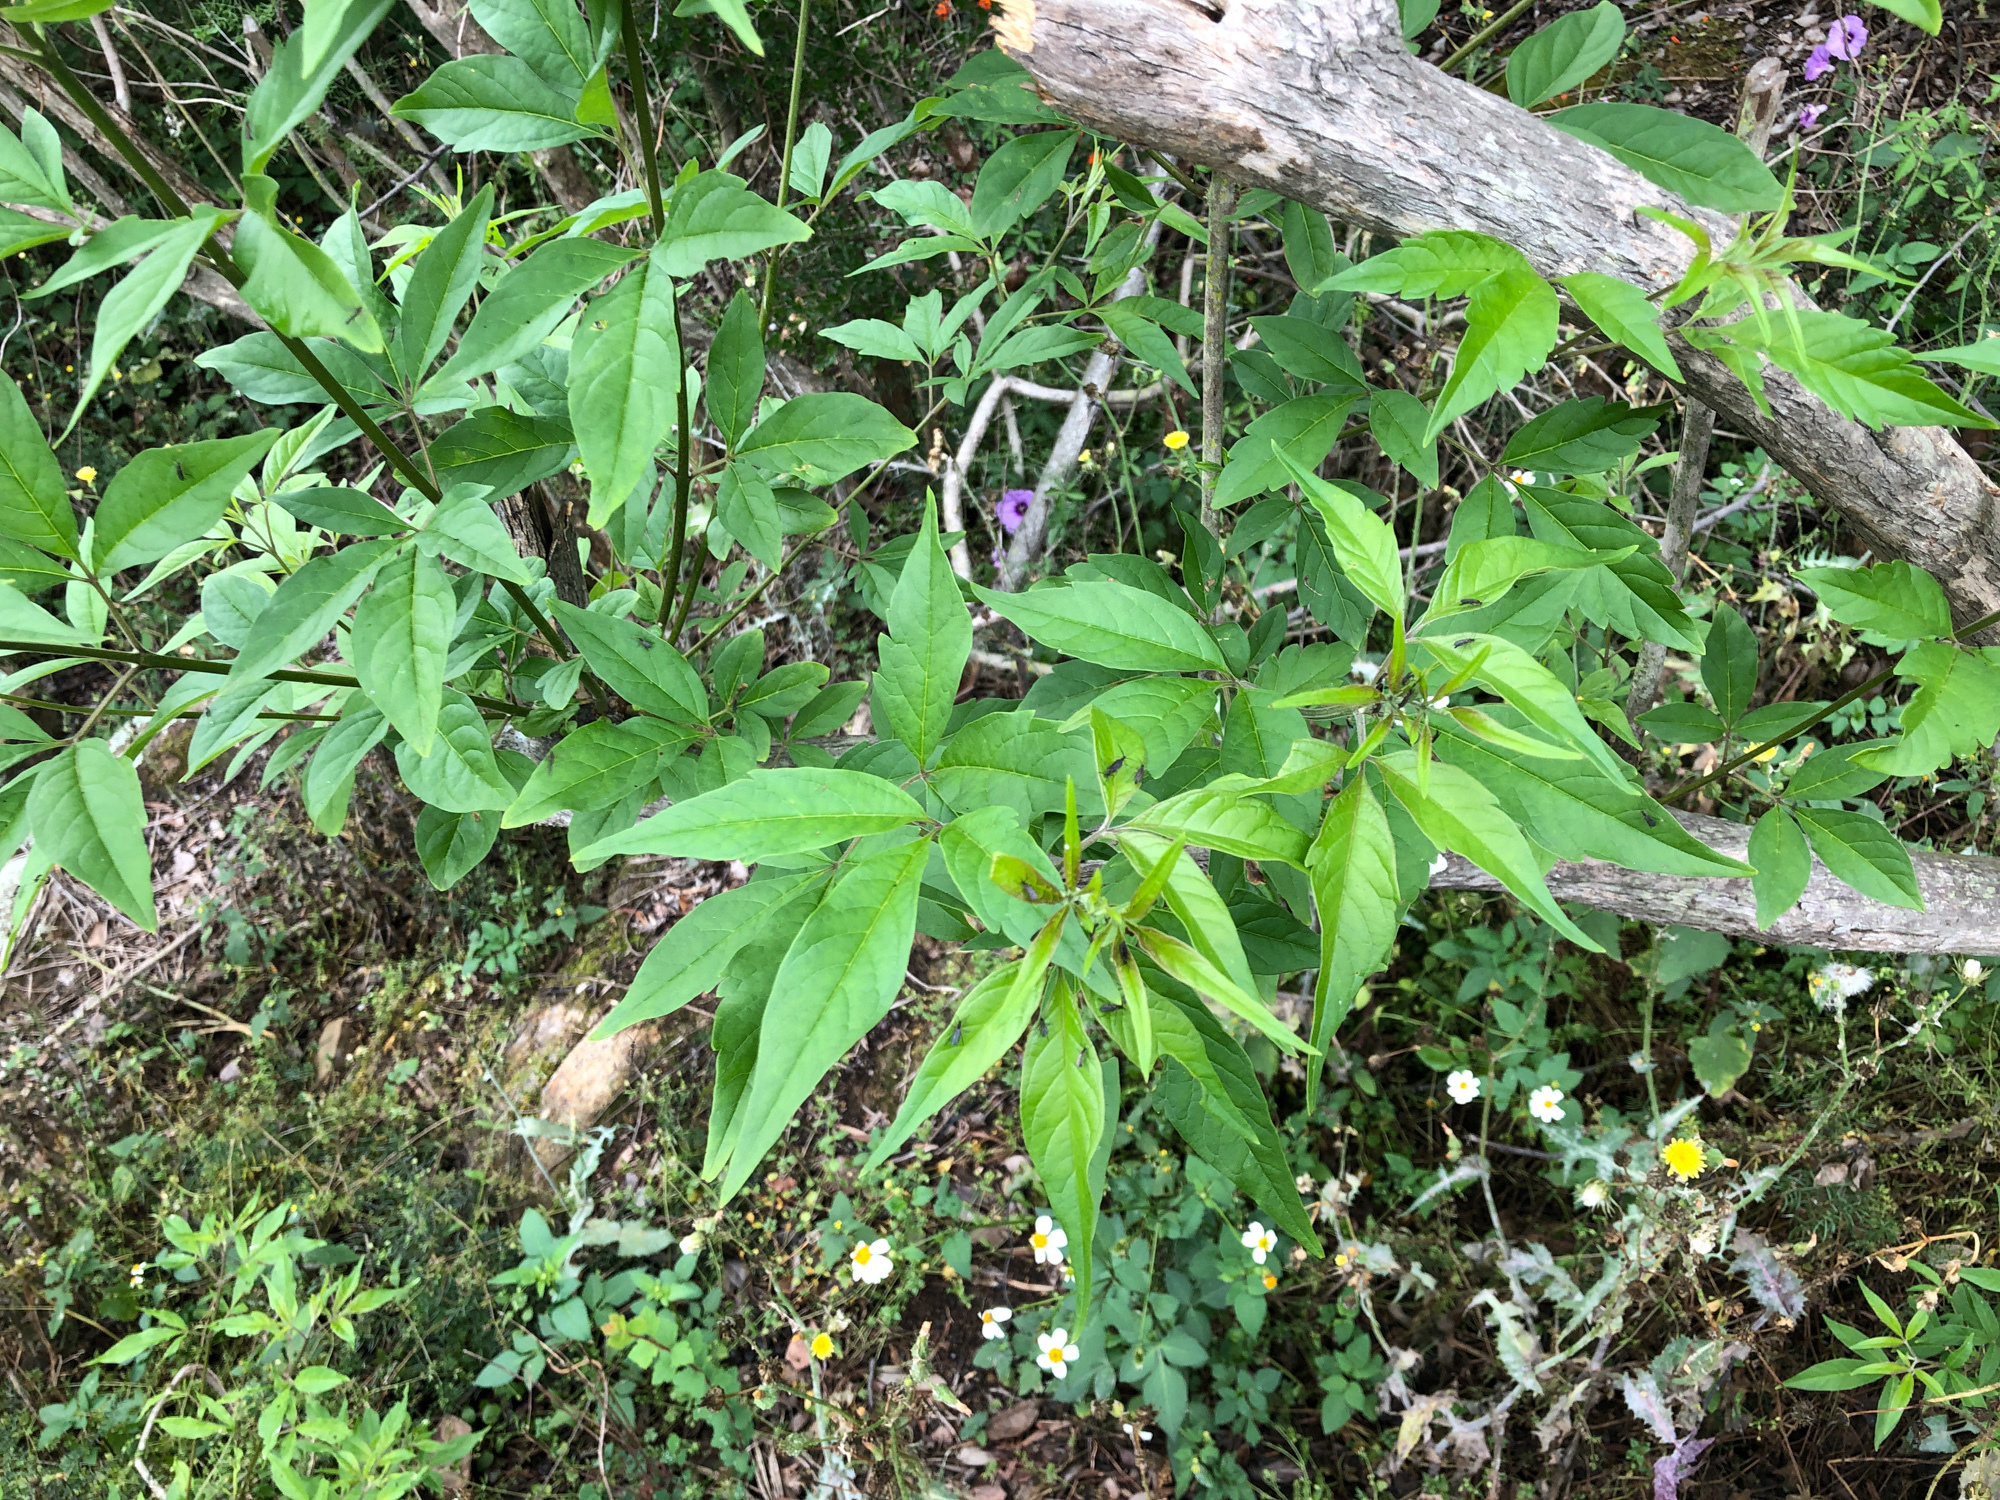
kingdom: Plantae
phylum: Tracheophyta
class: Magnoliopsida
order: Lamiales
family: Lamiaceae
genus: Vitex
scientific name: Vitex negundo
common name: Chinese chastetree
